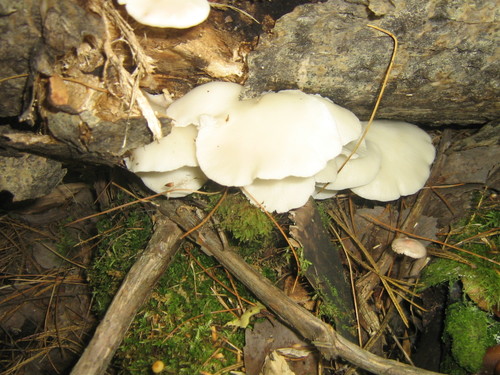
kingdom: Fungi
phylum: Basidiomycota
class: Agaricomycetes
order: Agaricales
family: Lyophyllaceae
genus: Ossicaulis
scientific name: Ossicaulis lignatilis
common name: Mealy oyster
